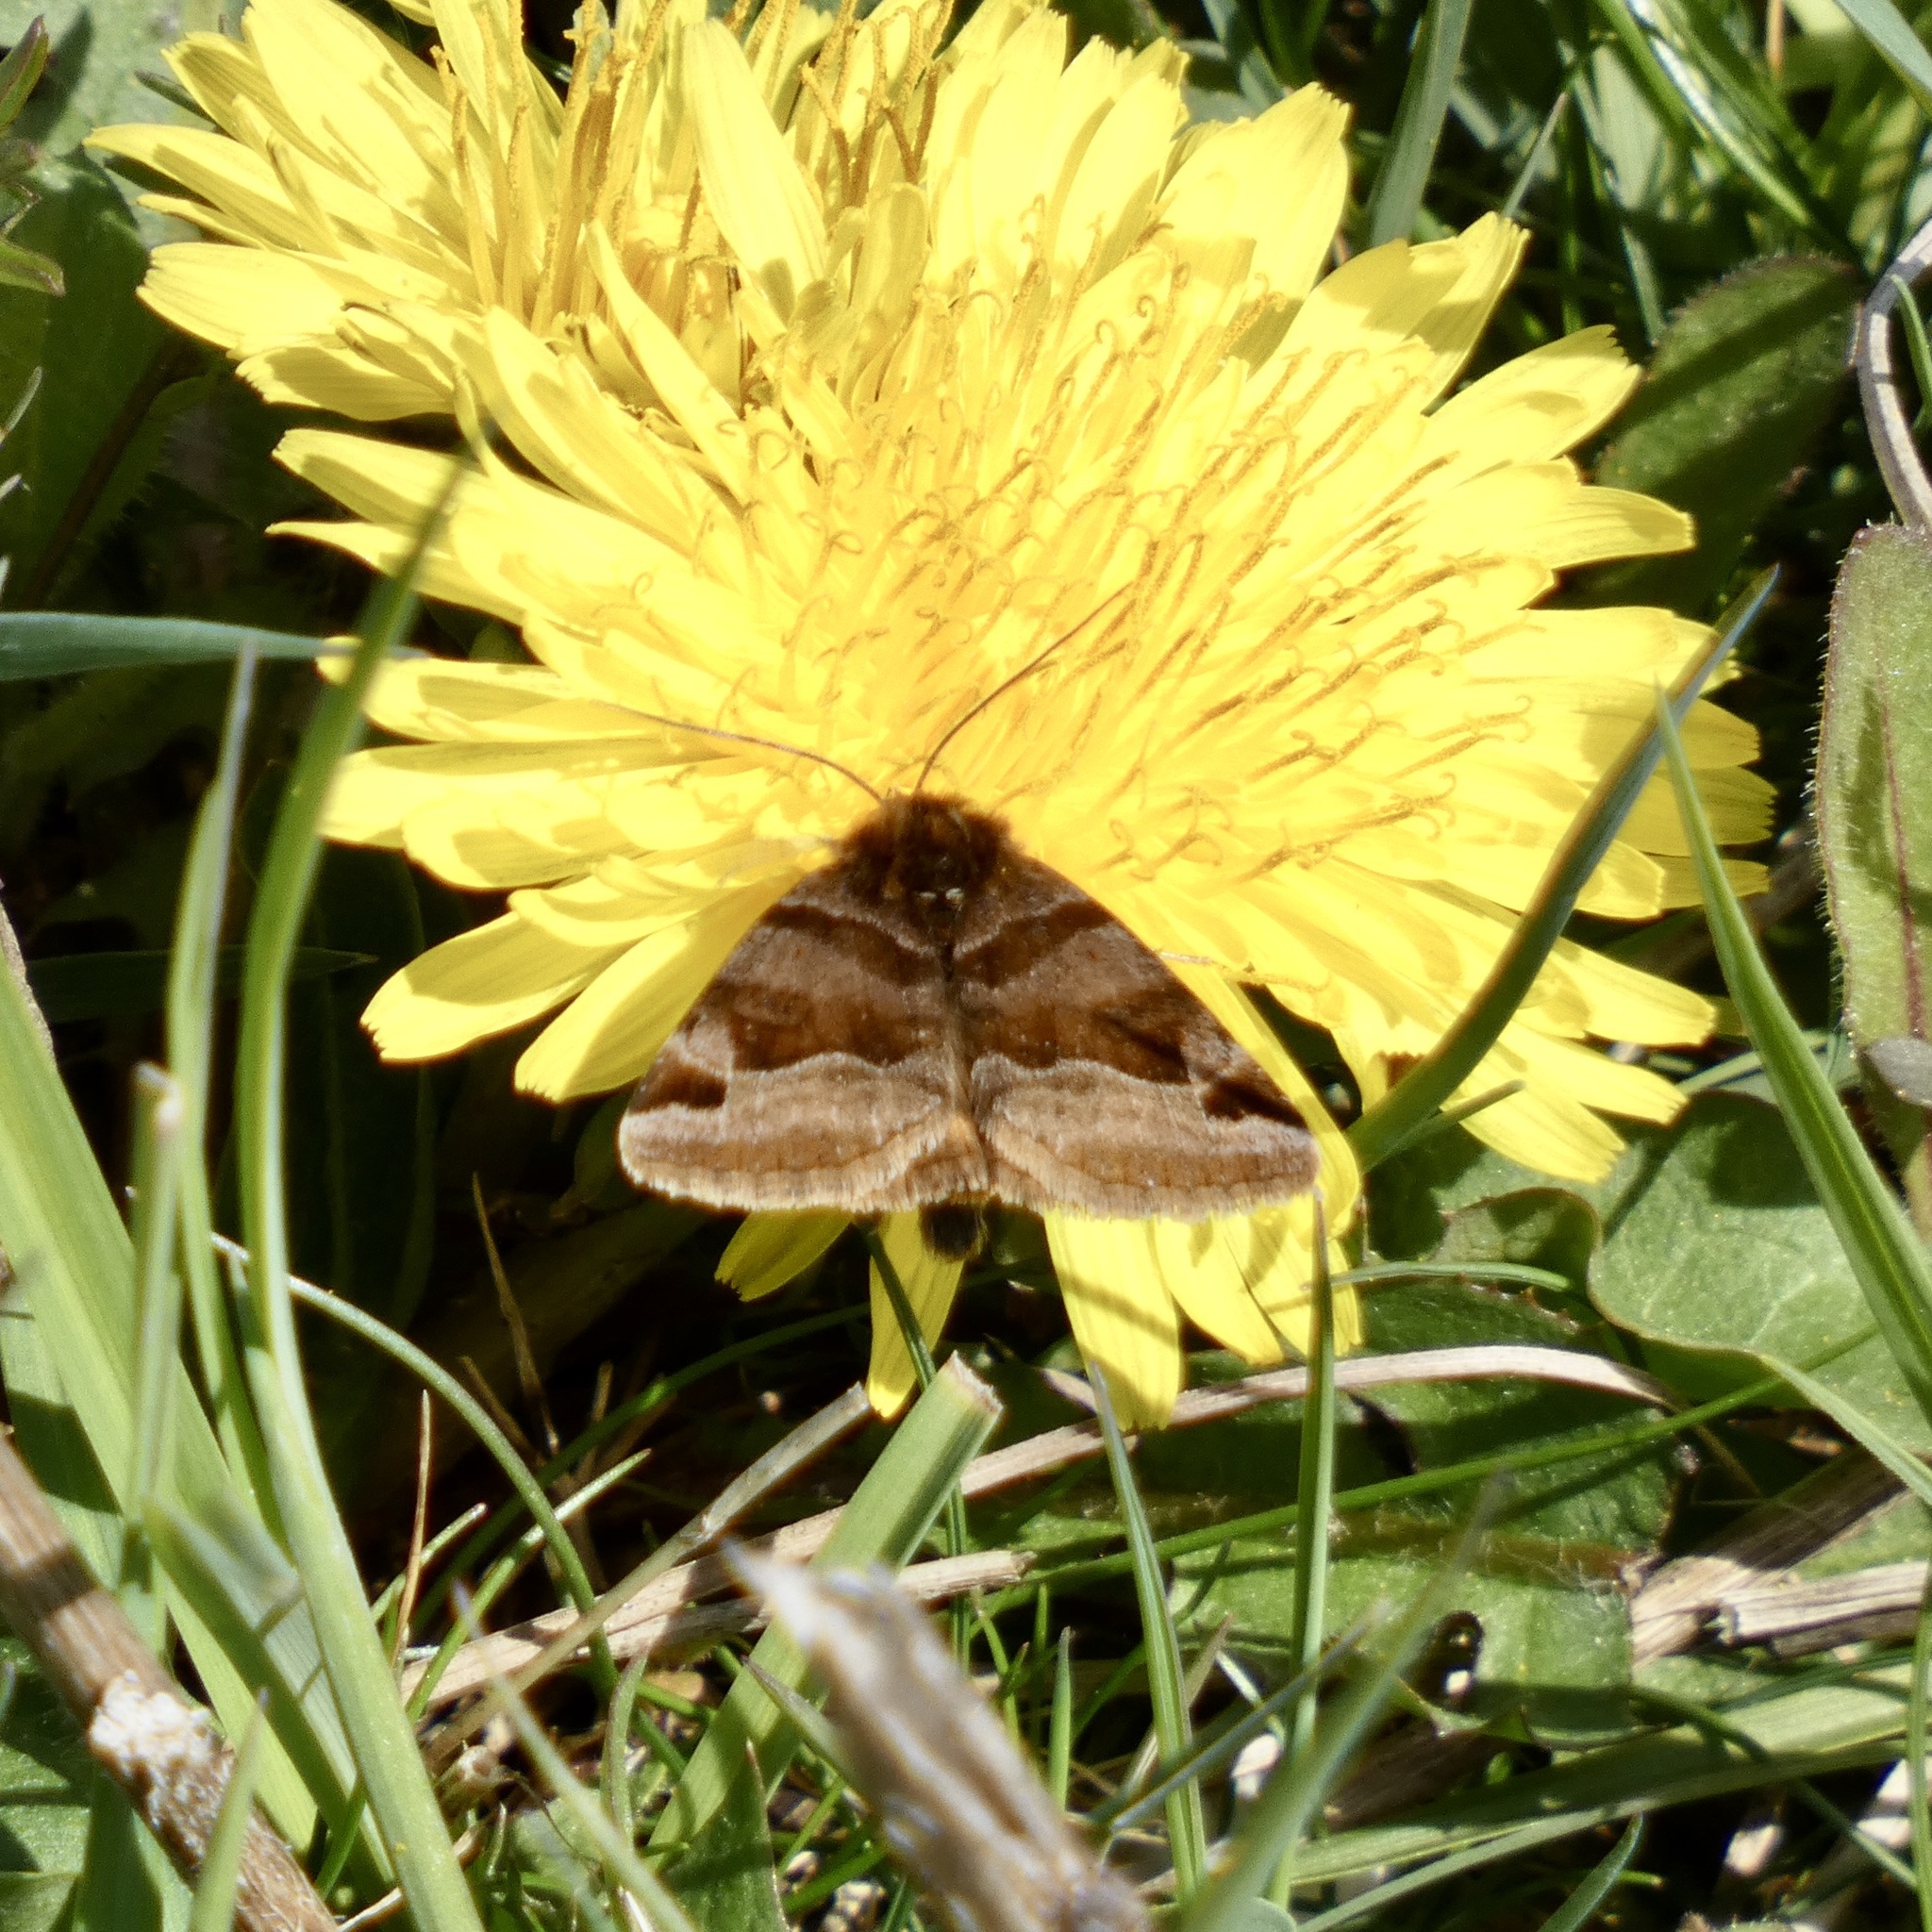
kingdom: Animalia
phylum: Arthropoda
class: Insecta
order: Lepidoptera
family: Erebidae
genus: Euclidia
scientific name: Euclidia glyphica
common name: Burnet companion
